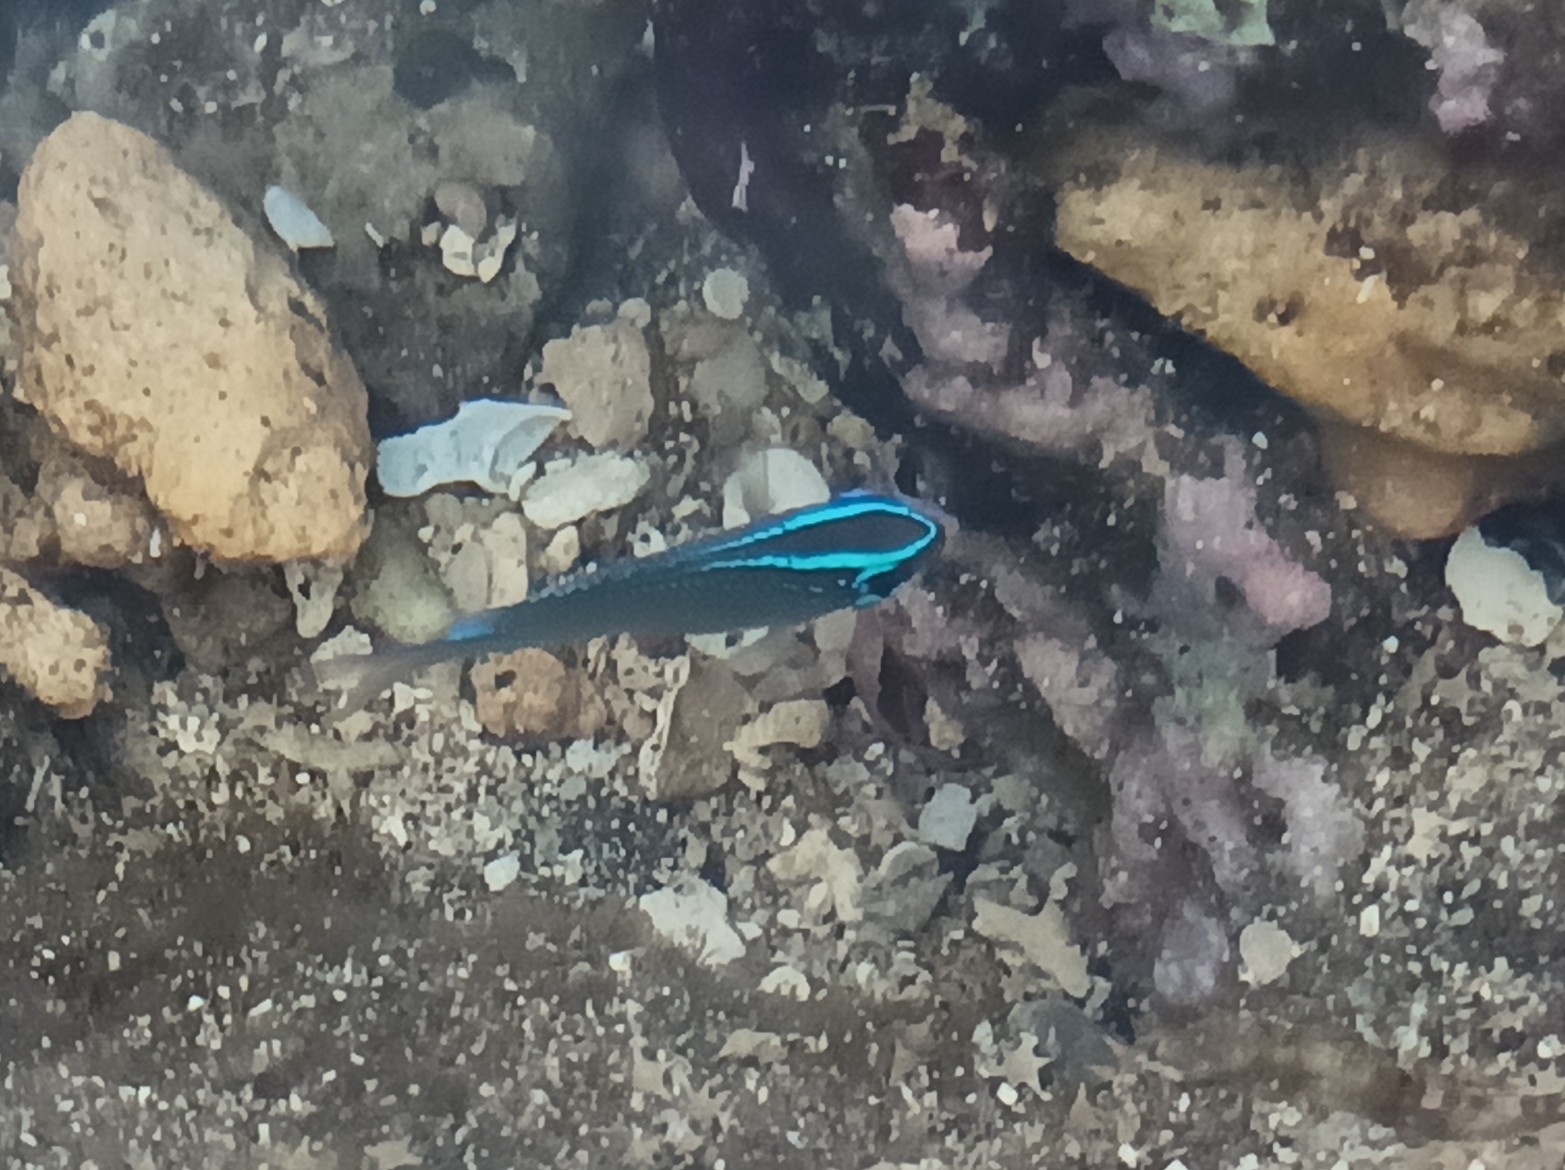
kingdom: Animalia
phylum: Chordata
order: Perciformes
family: Pomacentridae
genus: Chrysiptera
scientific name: Chrysiptera glauca
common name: Grey demoiselle
